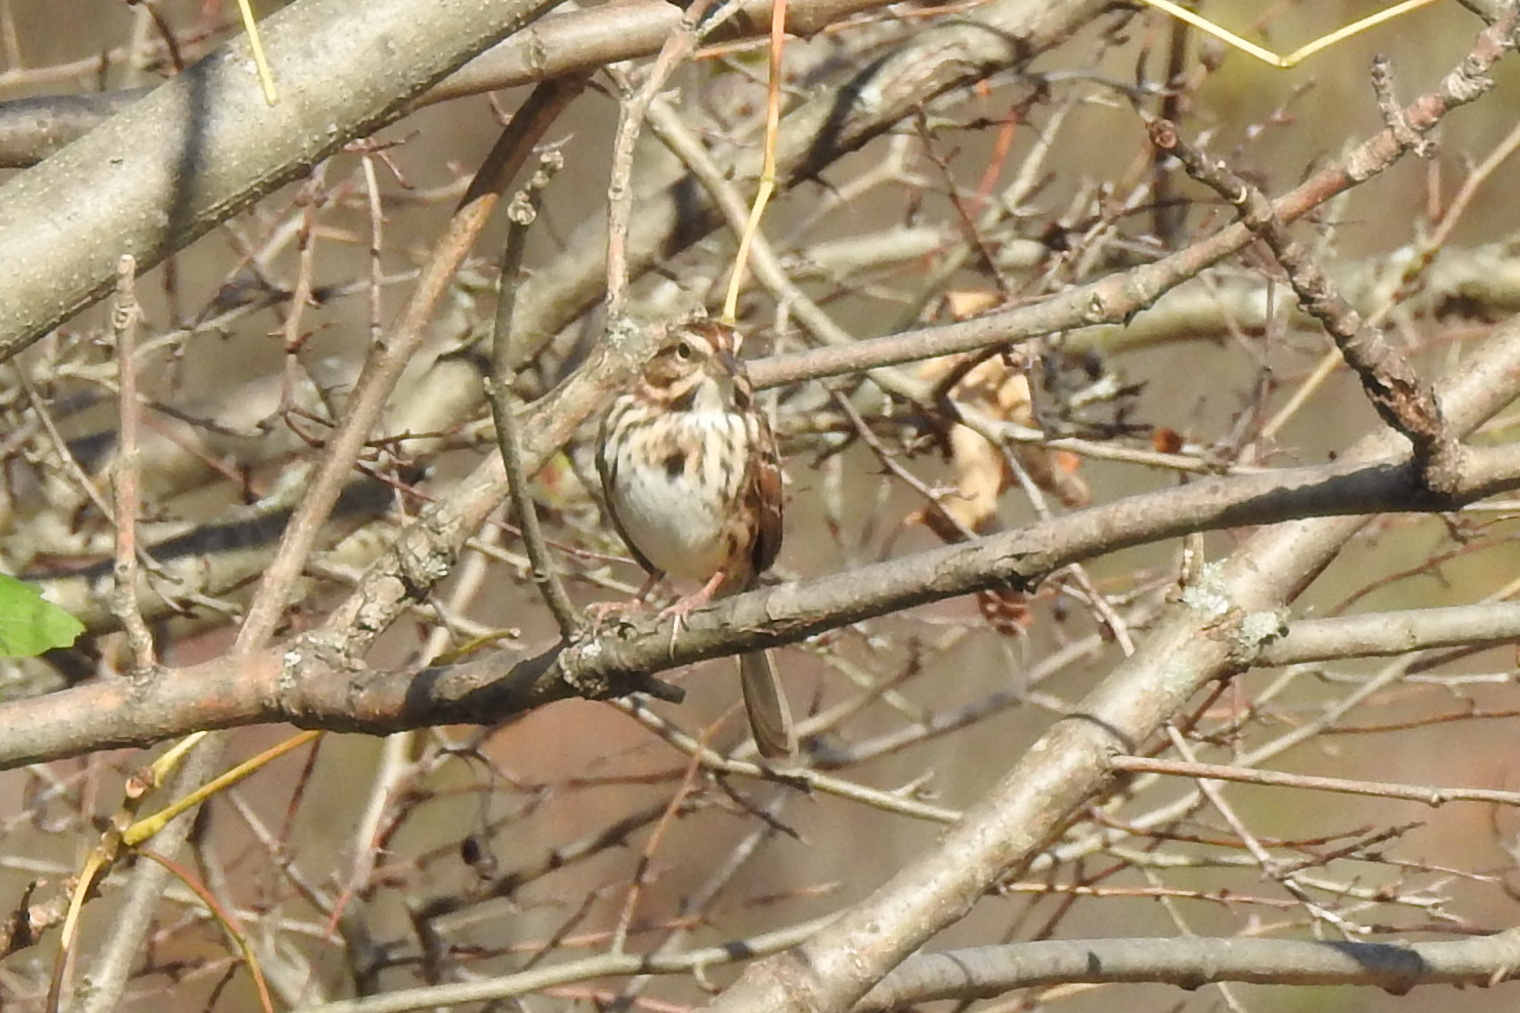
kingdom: Animalia
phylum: Chordata
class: Aves
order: Passeriformes
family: Passerellidae
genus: Melospiza
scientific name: Melospiza melodia
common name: Song sparrow
